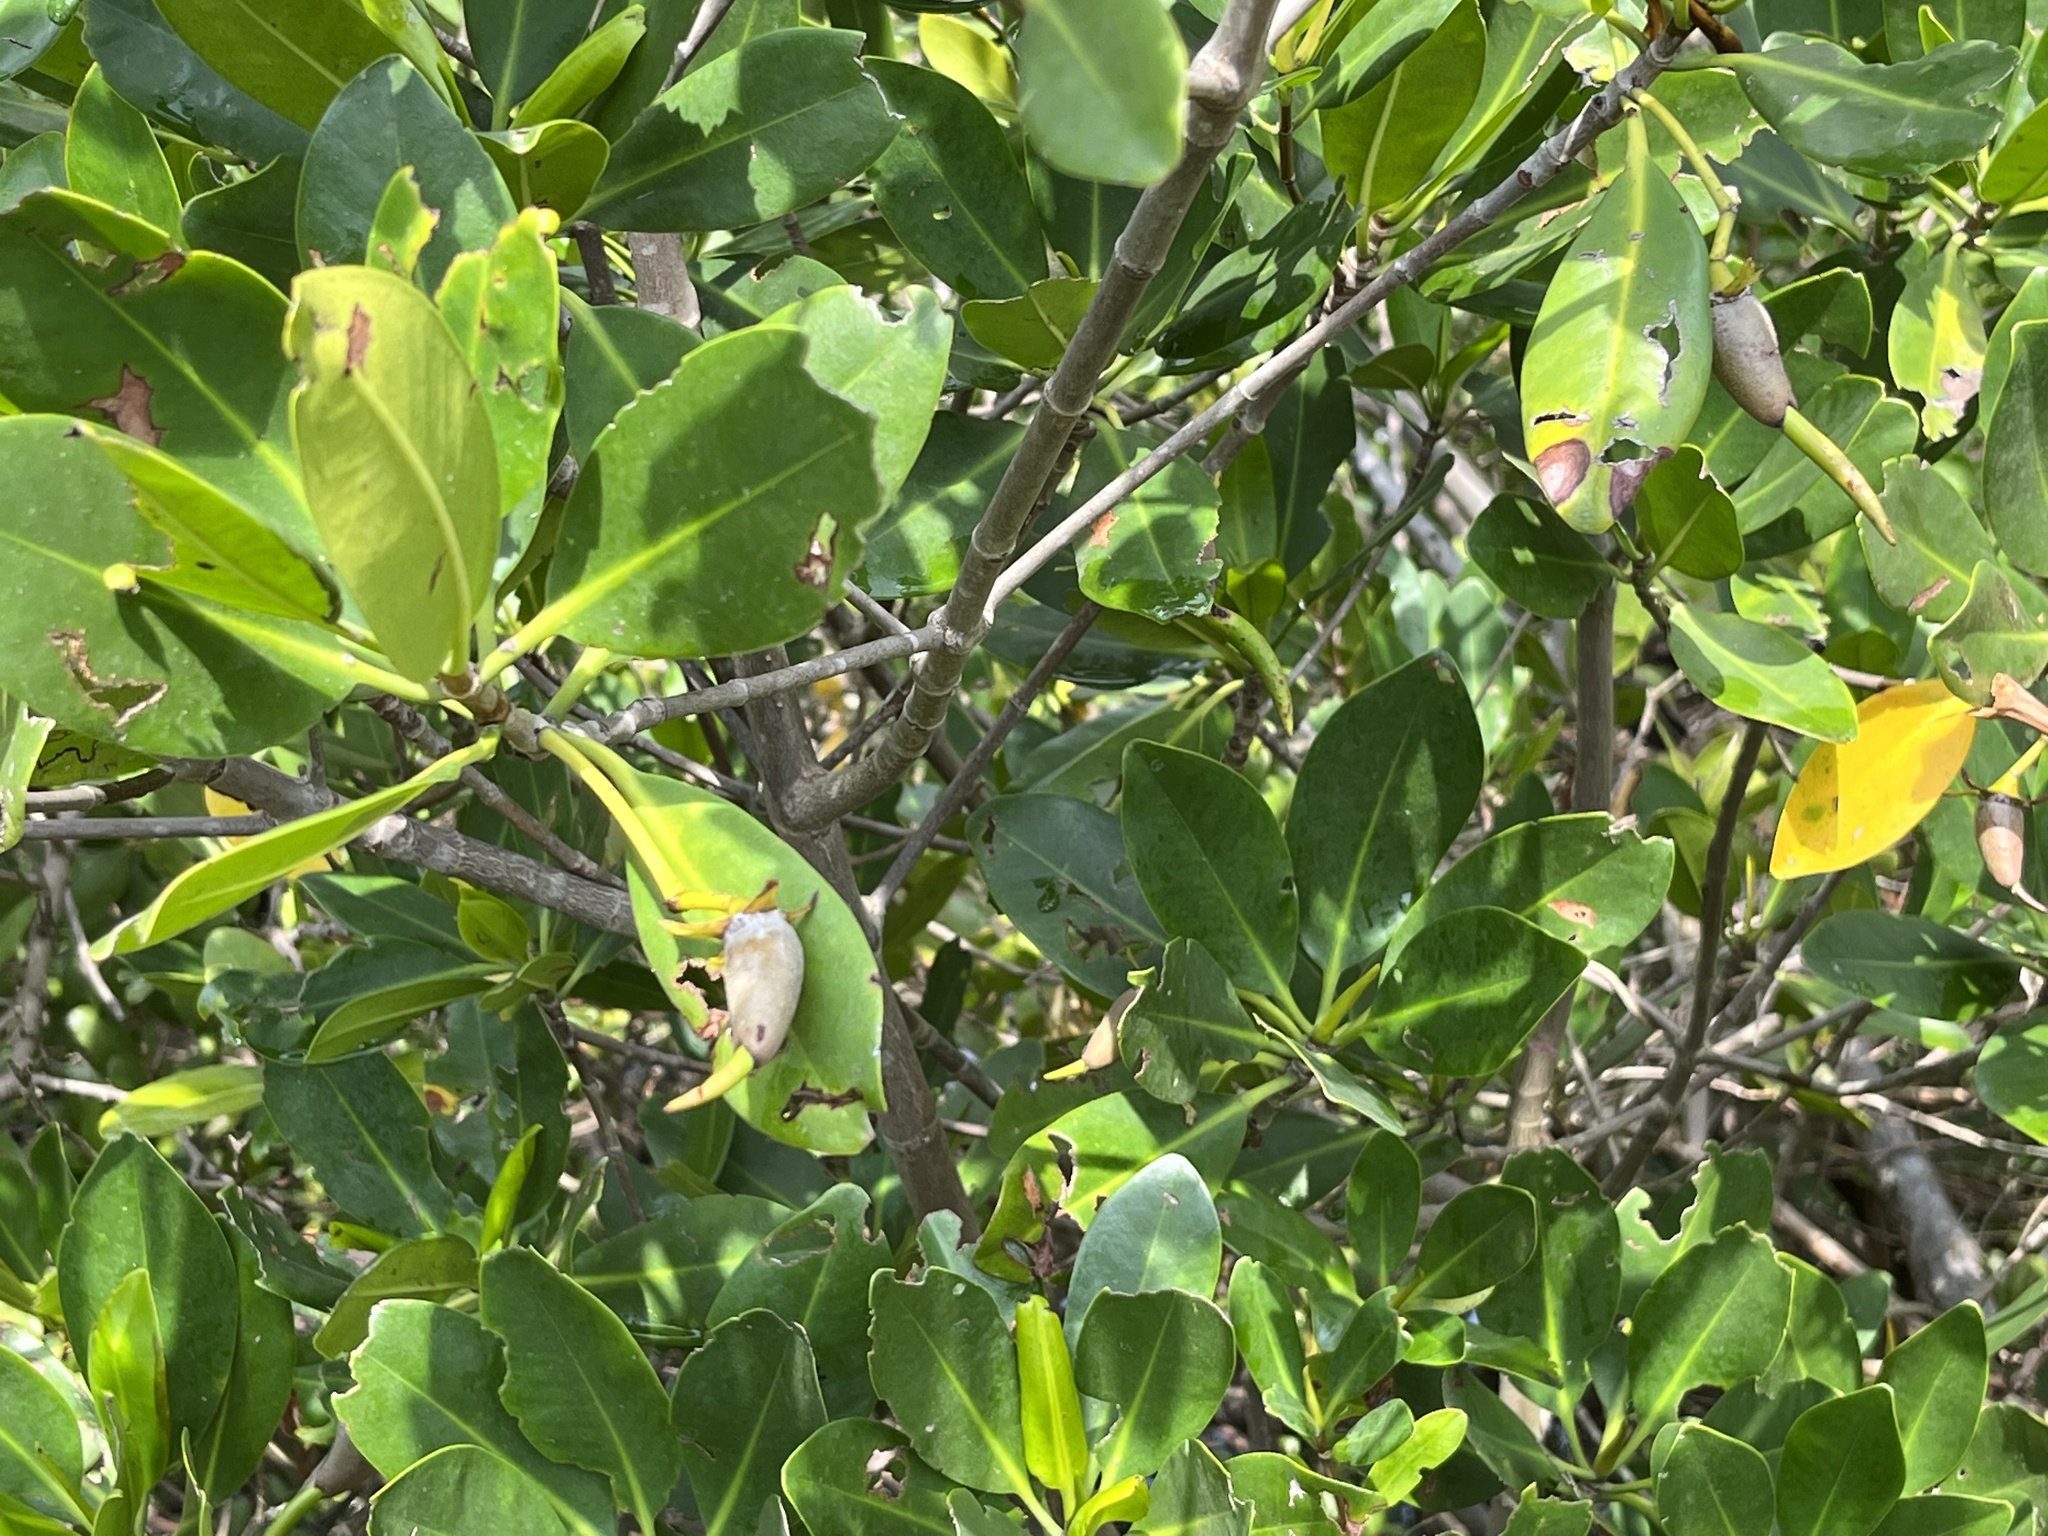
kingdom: Plantae
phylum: Tracheophyta
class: Magnoliopsida
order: Malpighiales
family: Rhizophoraceae
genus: Rhizophora
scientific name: Rhizophora mangle
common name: Red mangrove
